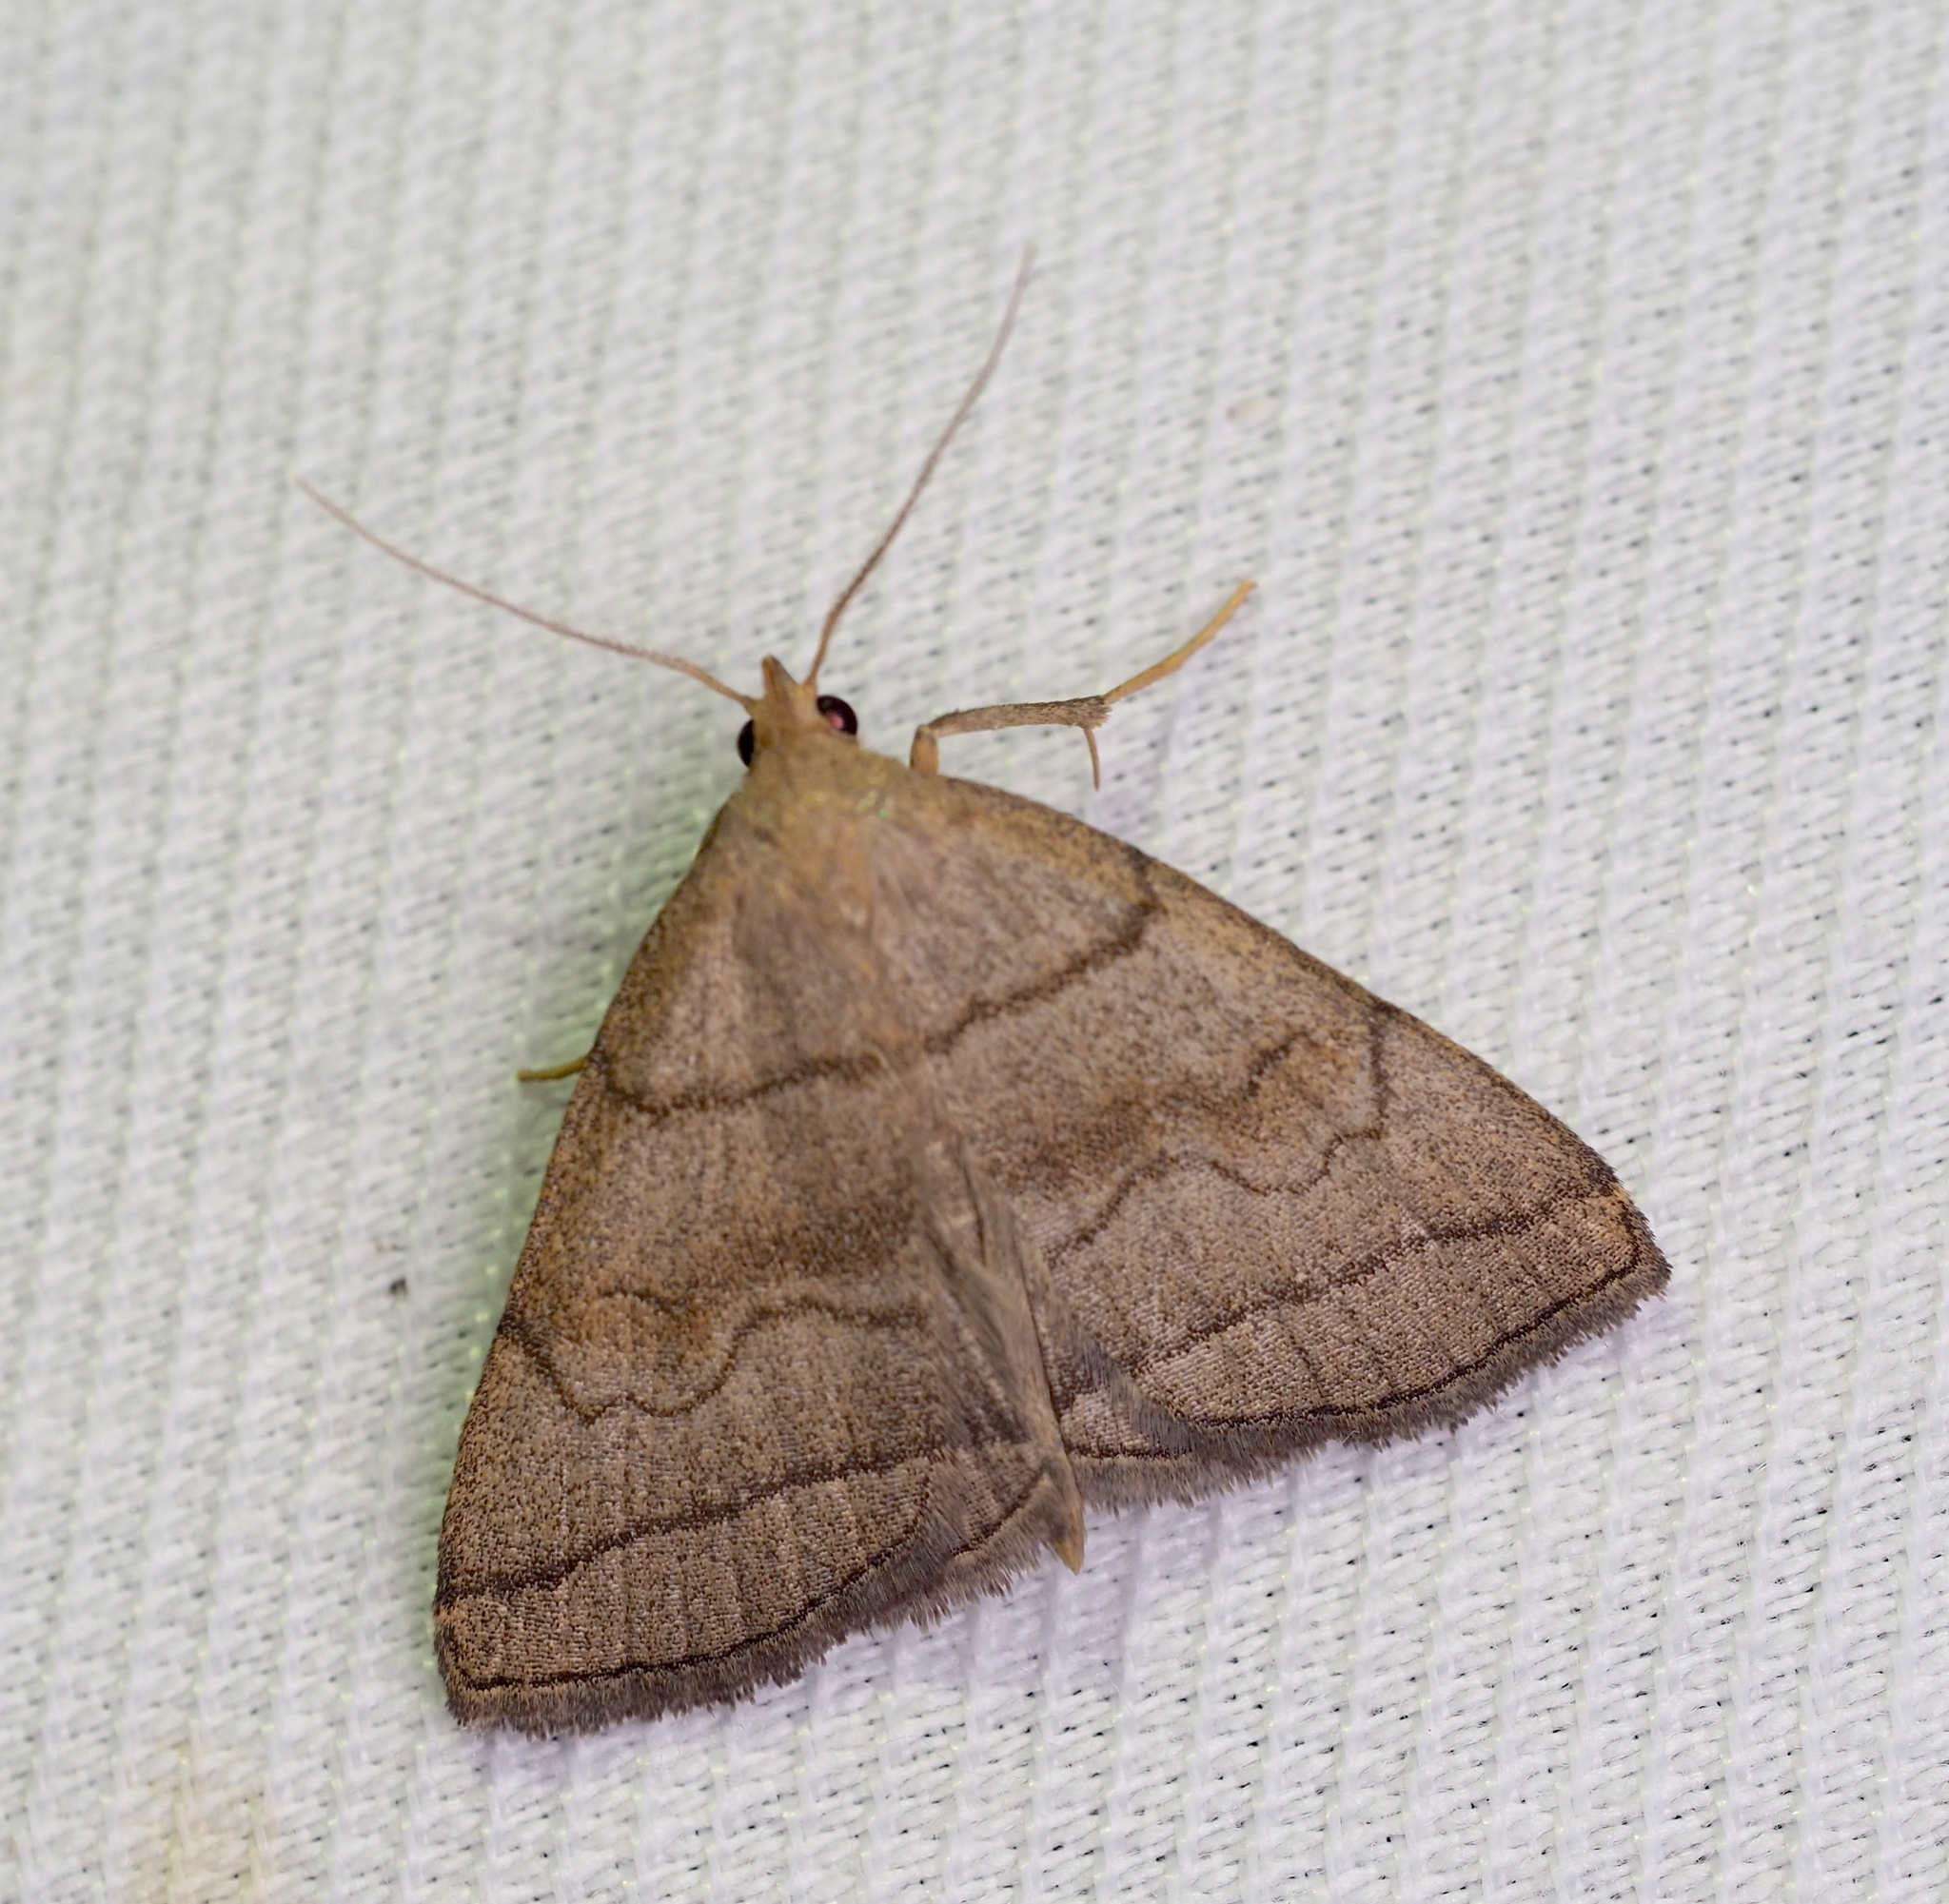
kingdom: Animalia
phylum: Arthropoda
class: Insecta
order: Lepidoptera
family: Erebidae
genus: Herminia
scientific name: Herminia tarsicrinalis
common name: Shaded fan-foot
